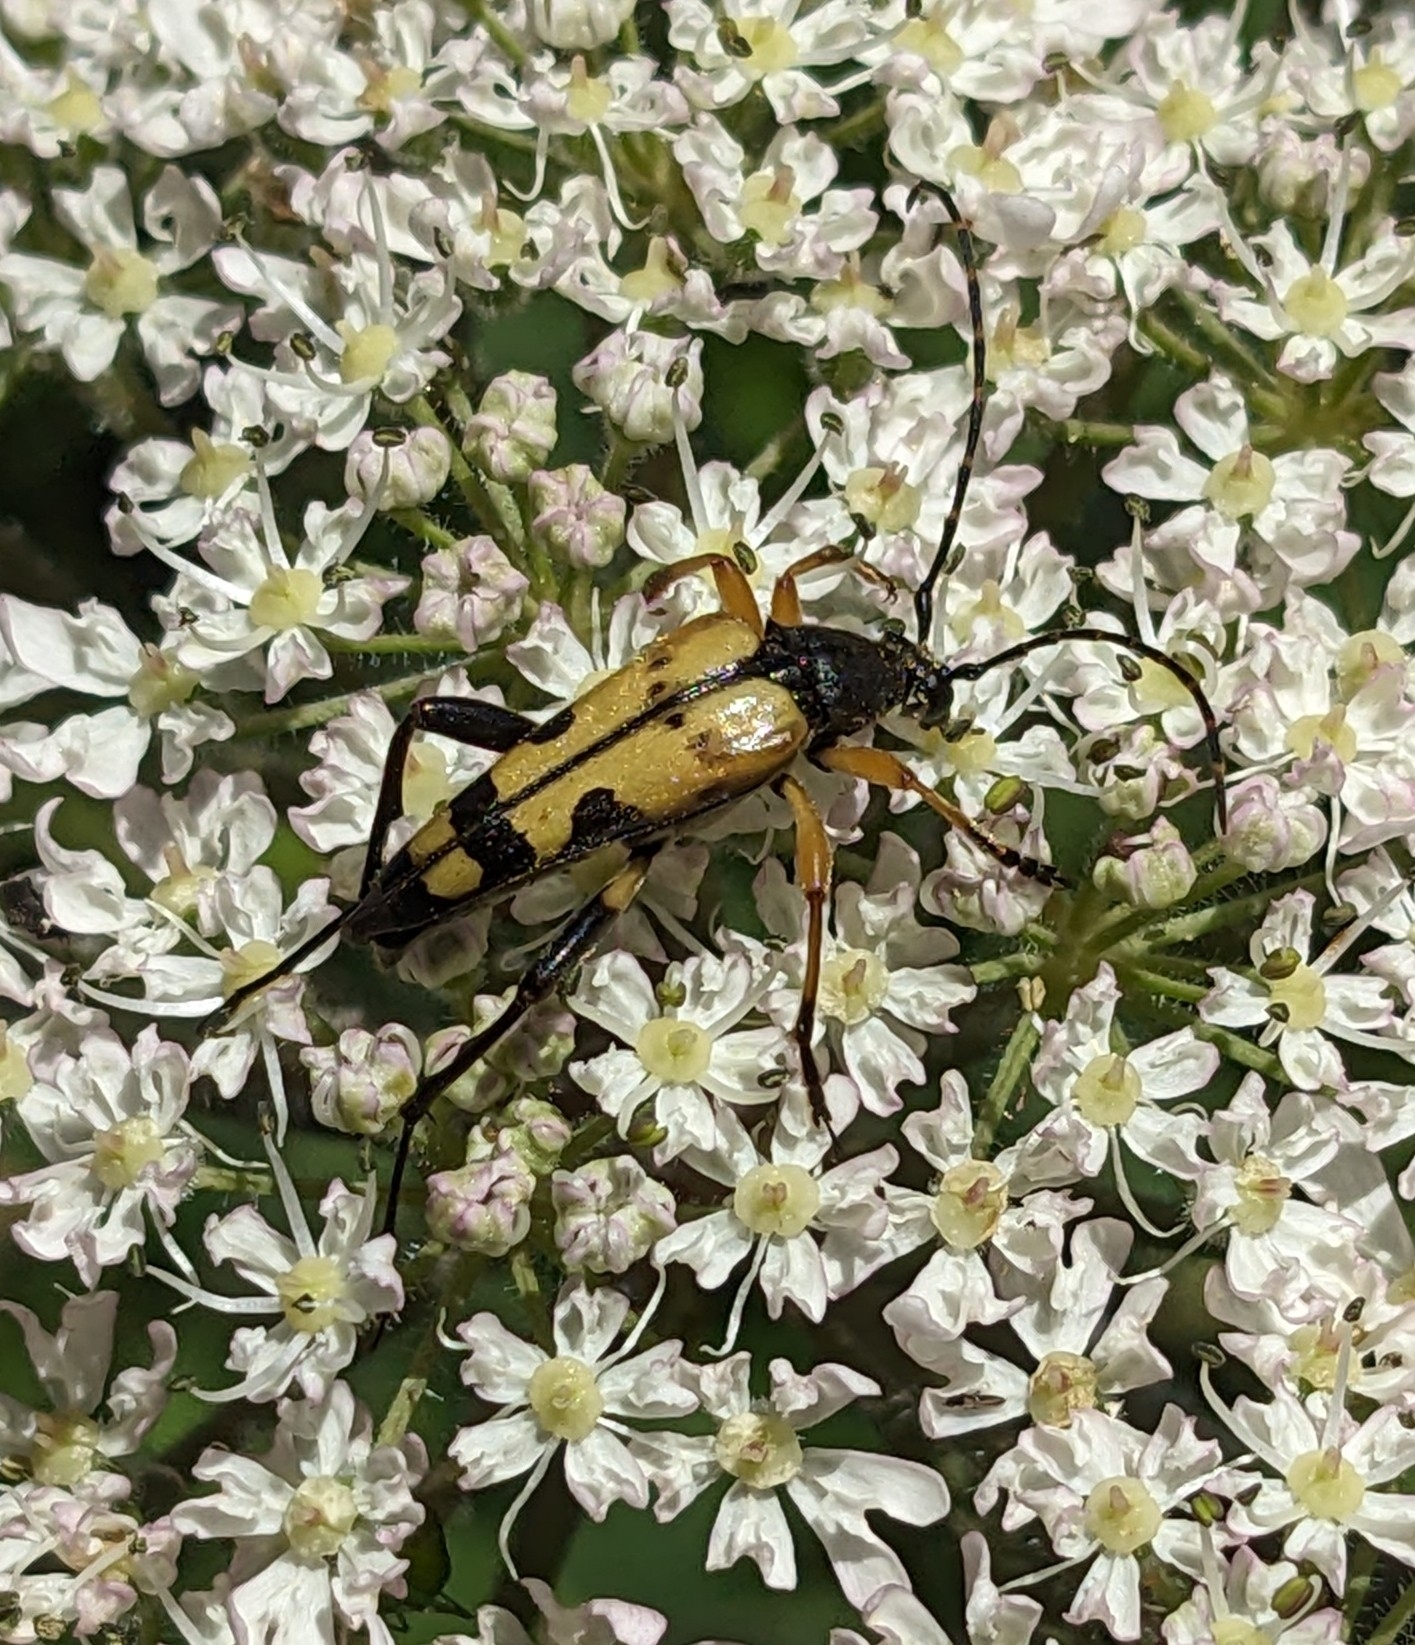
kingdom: Animalia
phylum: Arthropoda
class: Insecta
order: Coleoptera
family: Cerambycidae
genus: Rutpela
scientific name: Rutpela maculata
